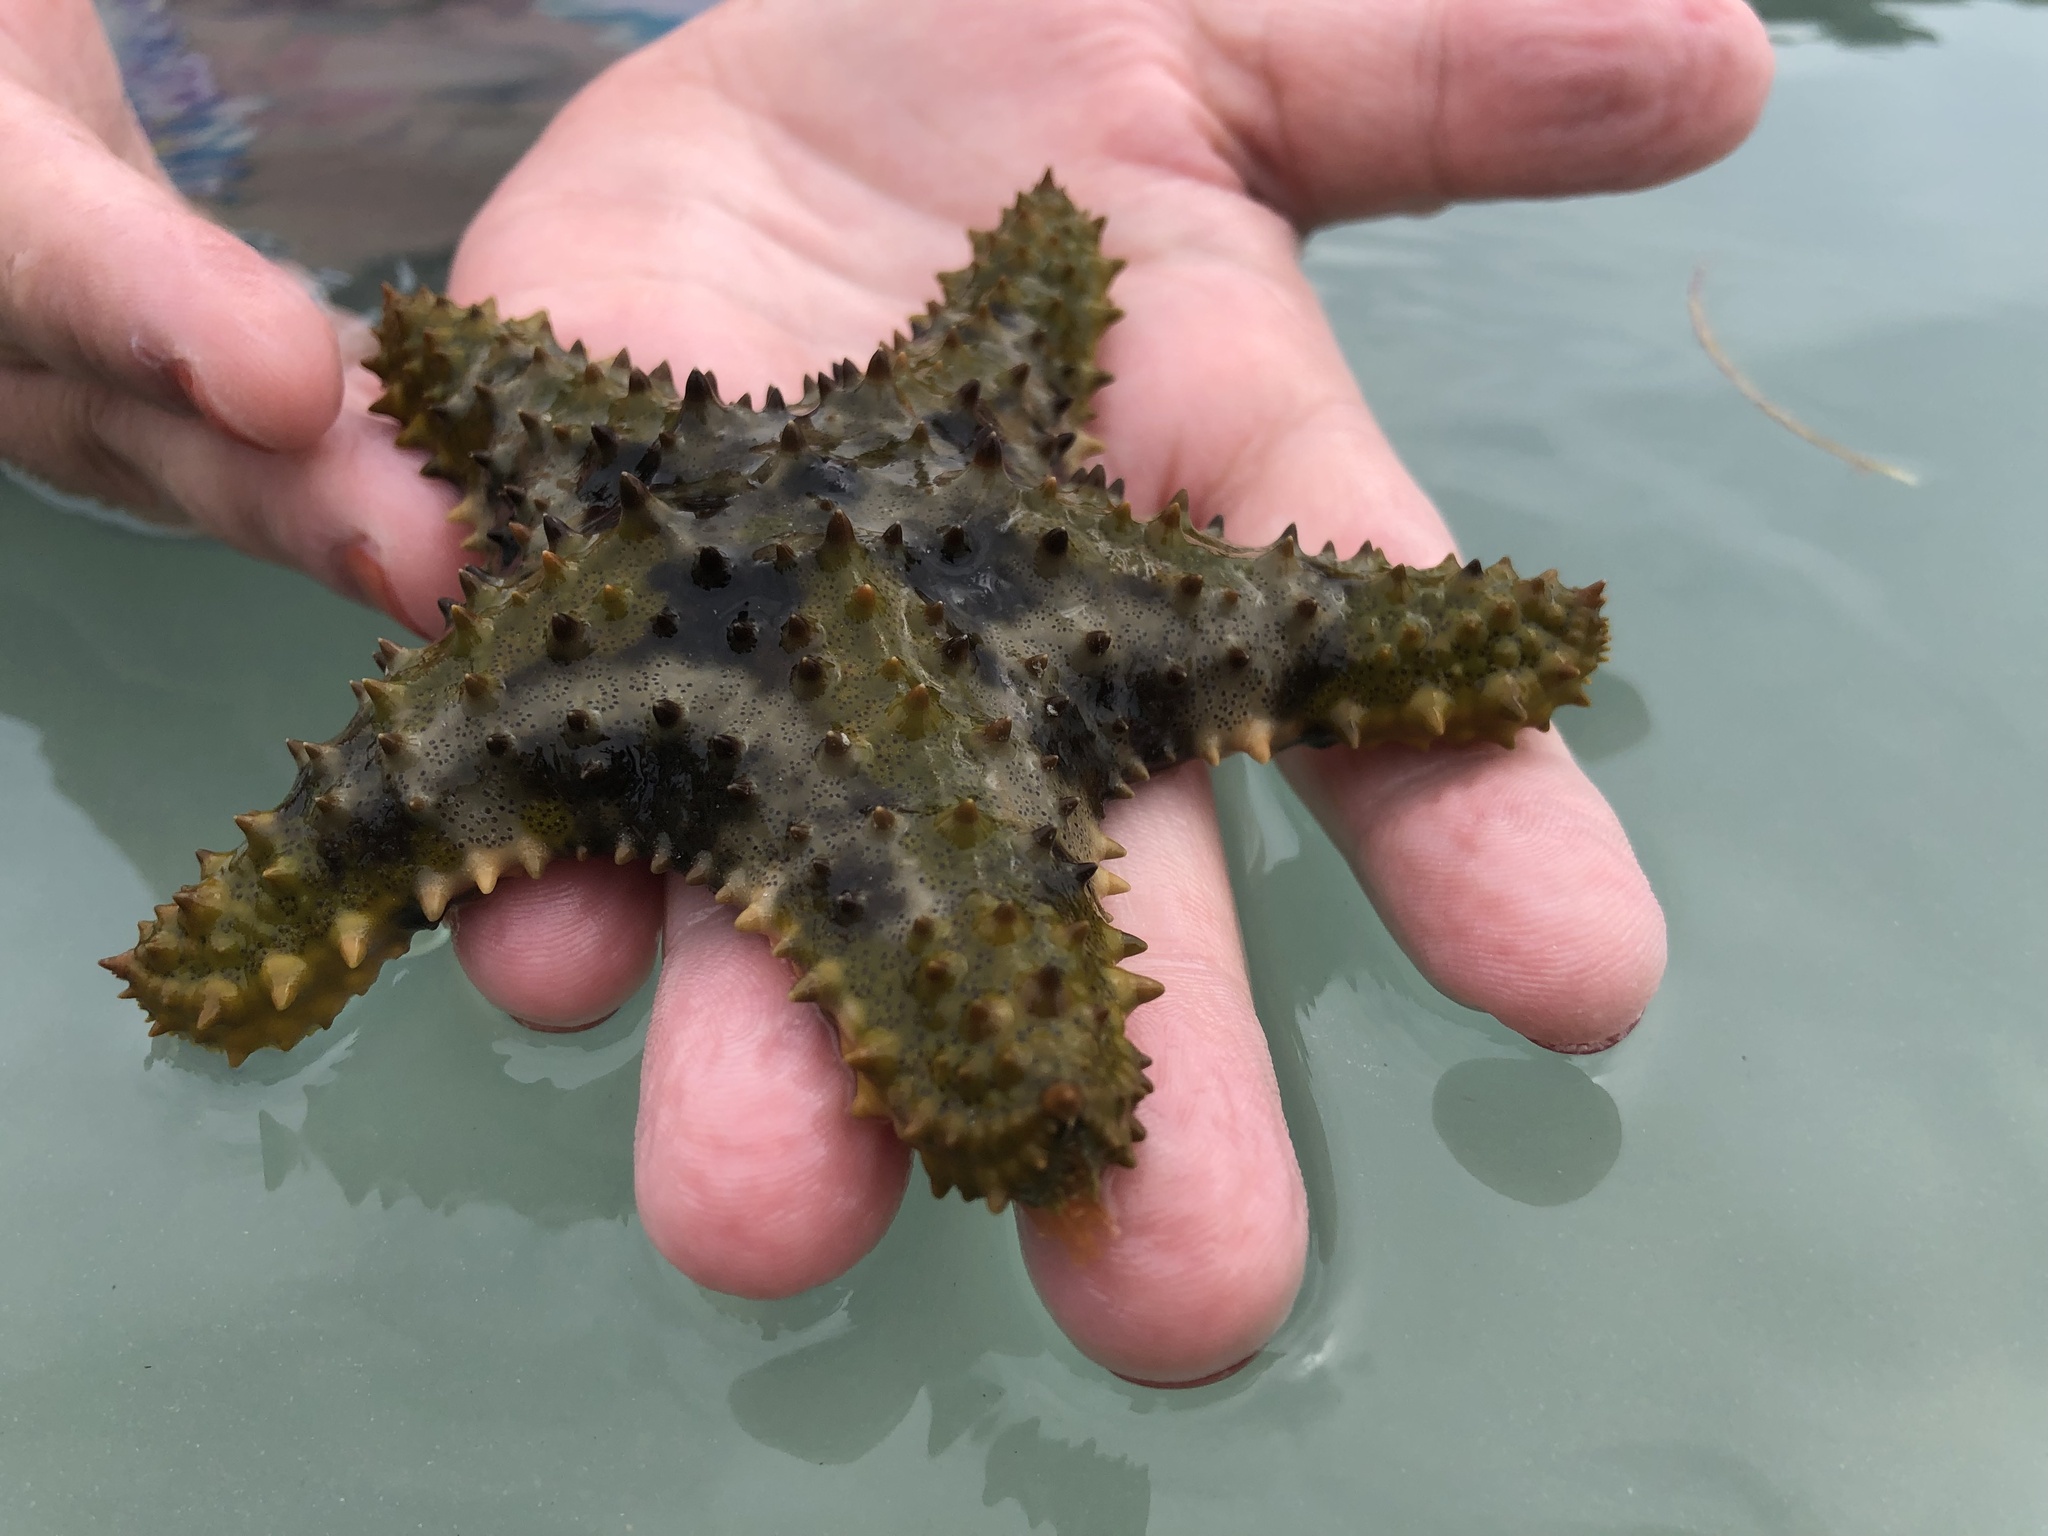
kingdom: Animalia
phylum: Echinodermata
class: Asteroidea
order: Valvatida
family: Oreasteridae
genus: Oreaster
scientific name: Oreaster reticulatus
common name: Cushion sea star
